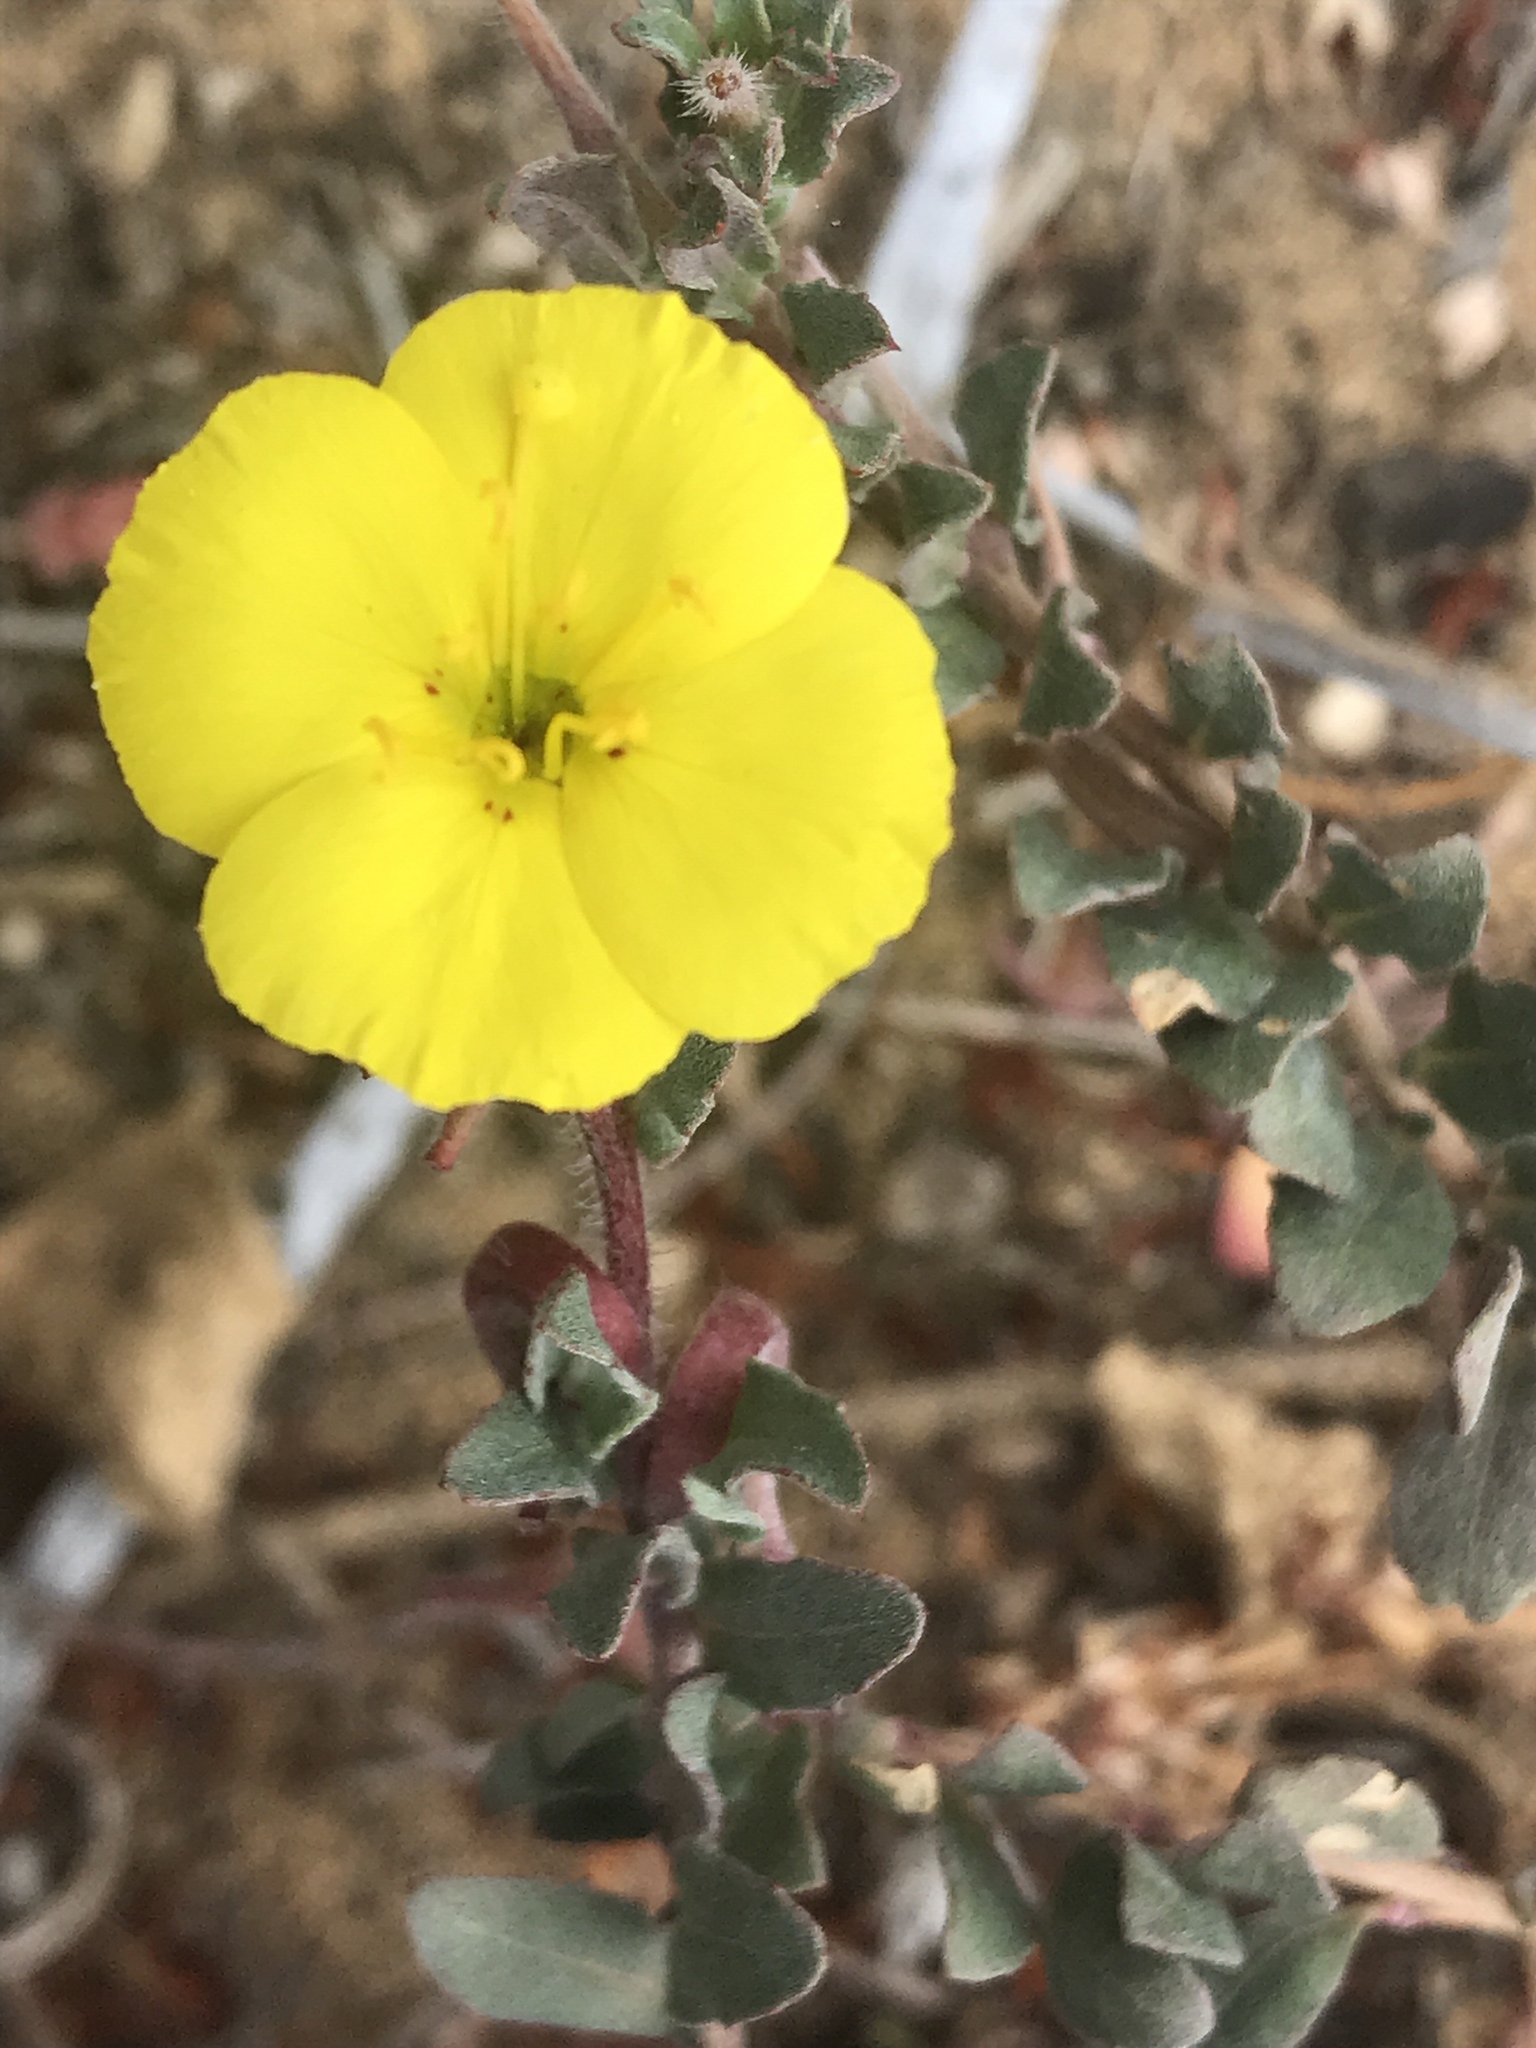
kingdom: Plantae
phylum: Tracheophyta
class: Magnoliopsida
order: Myrtales
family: Onagraceae
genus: Camissoniopsis
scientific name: Camissoniopsis cheiranthifolia
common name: Beach suncup
